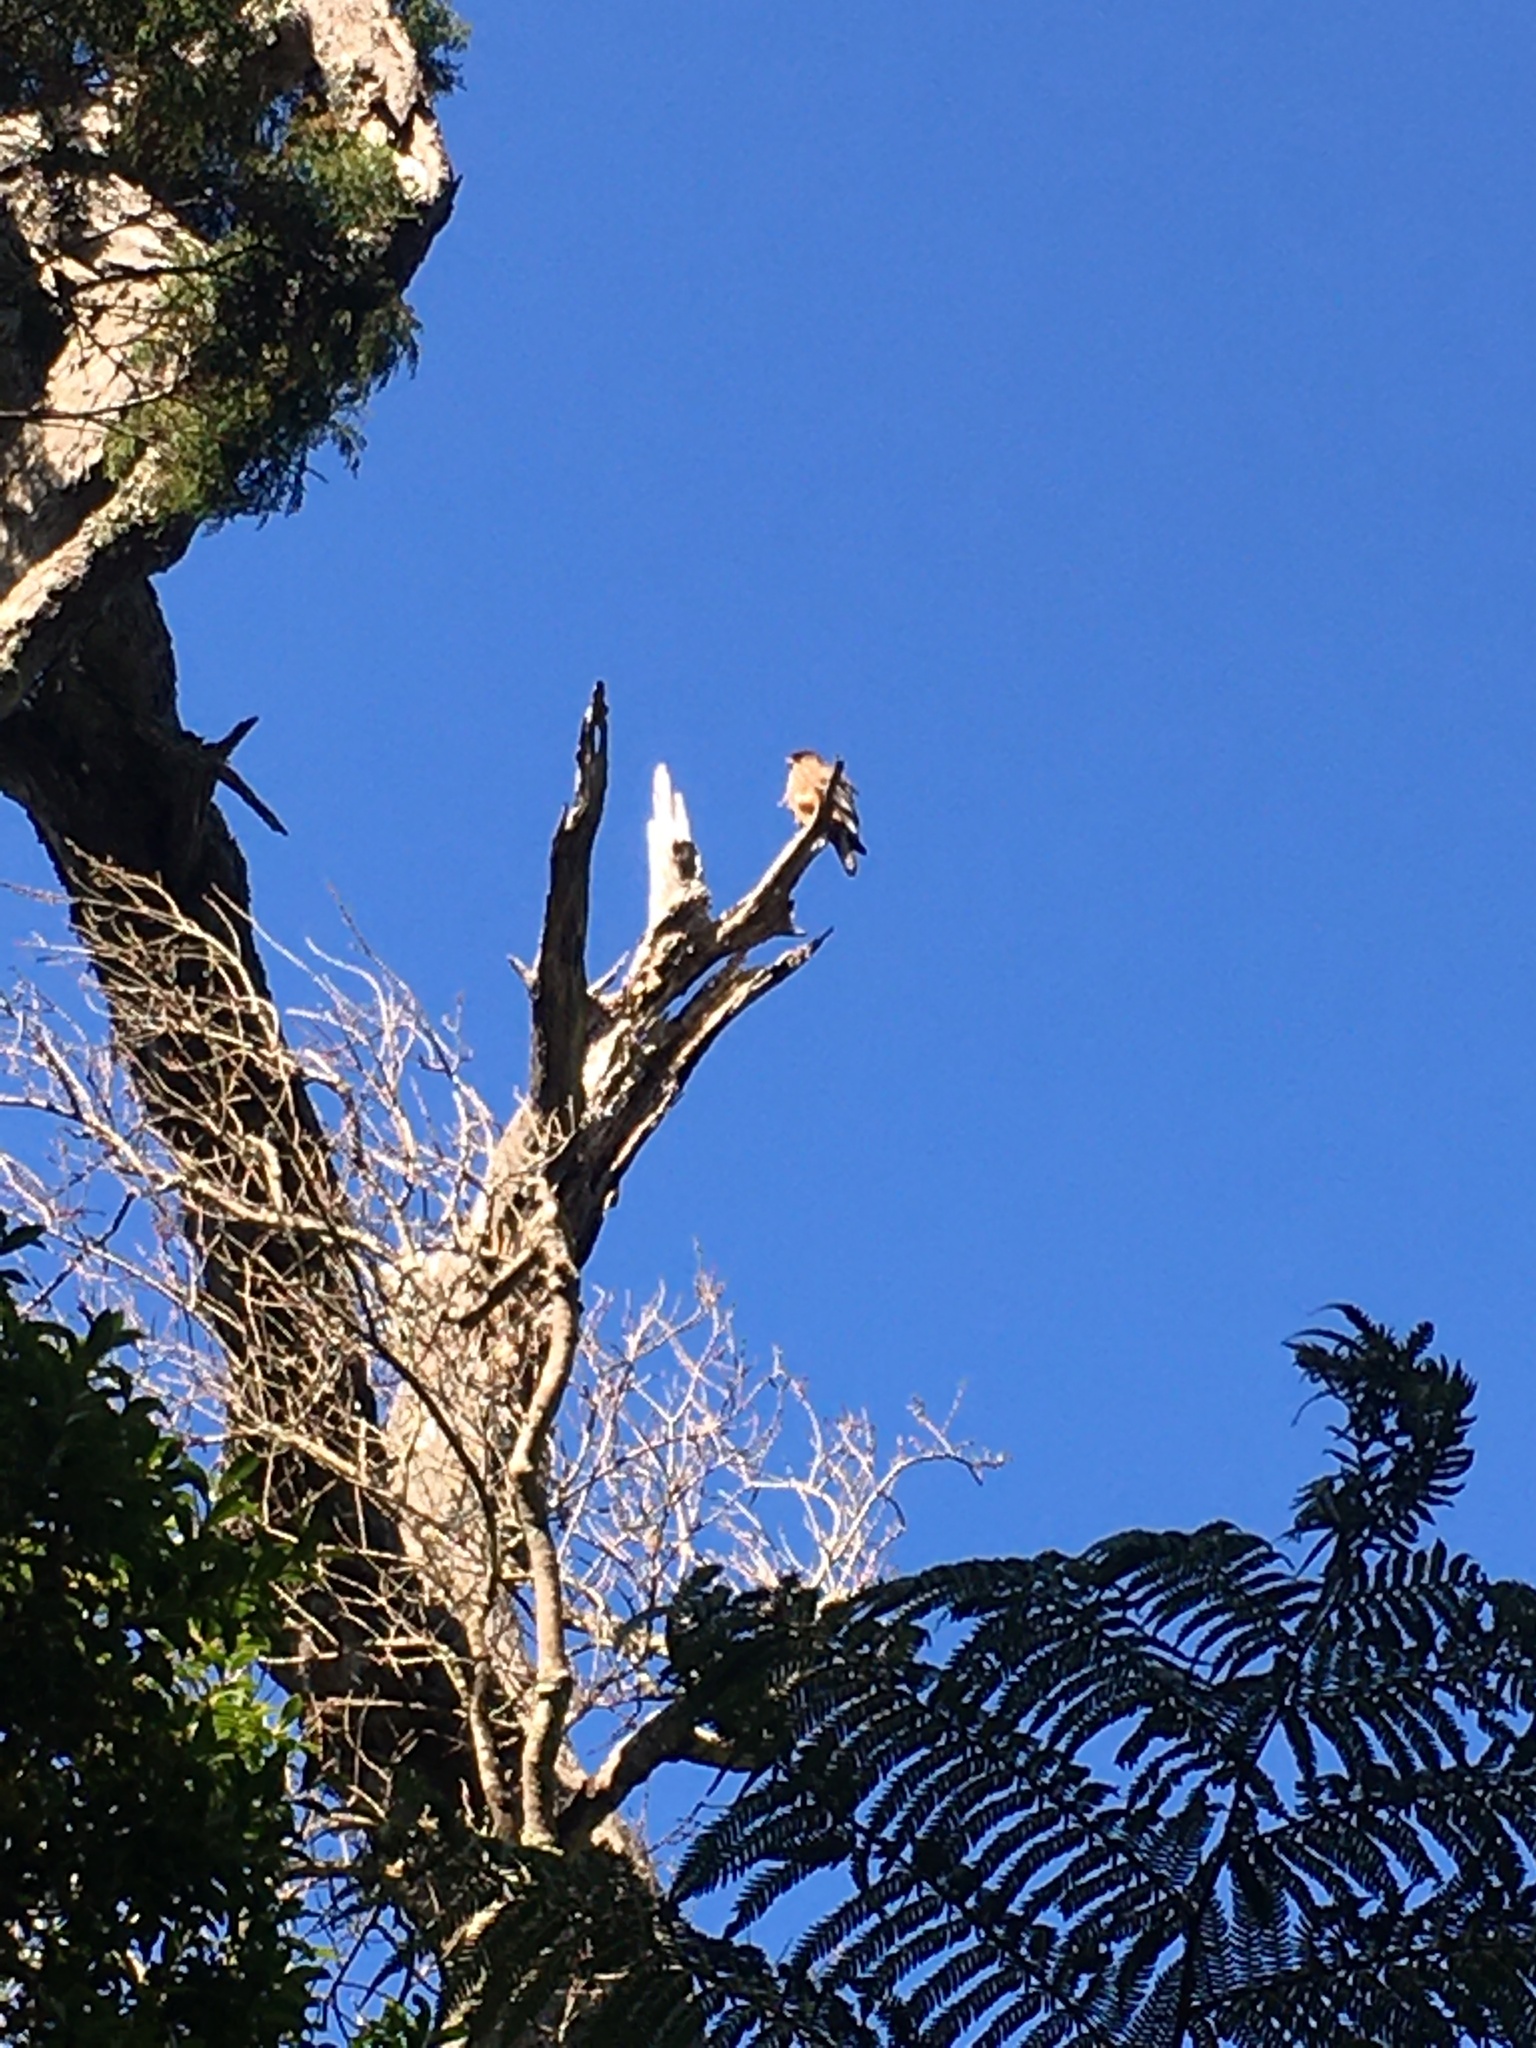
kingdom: Animalia
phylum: Chordata
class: Aves
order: Falconiformes
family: Falconidae
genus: Falco
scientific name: Falco novaeseelandiae
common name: New zealand falcon
